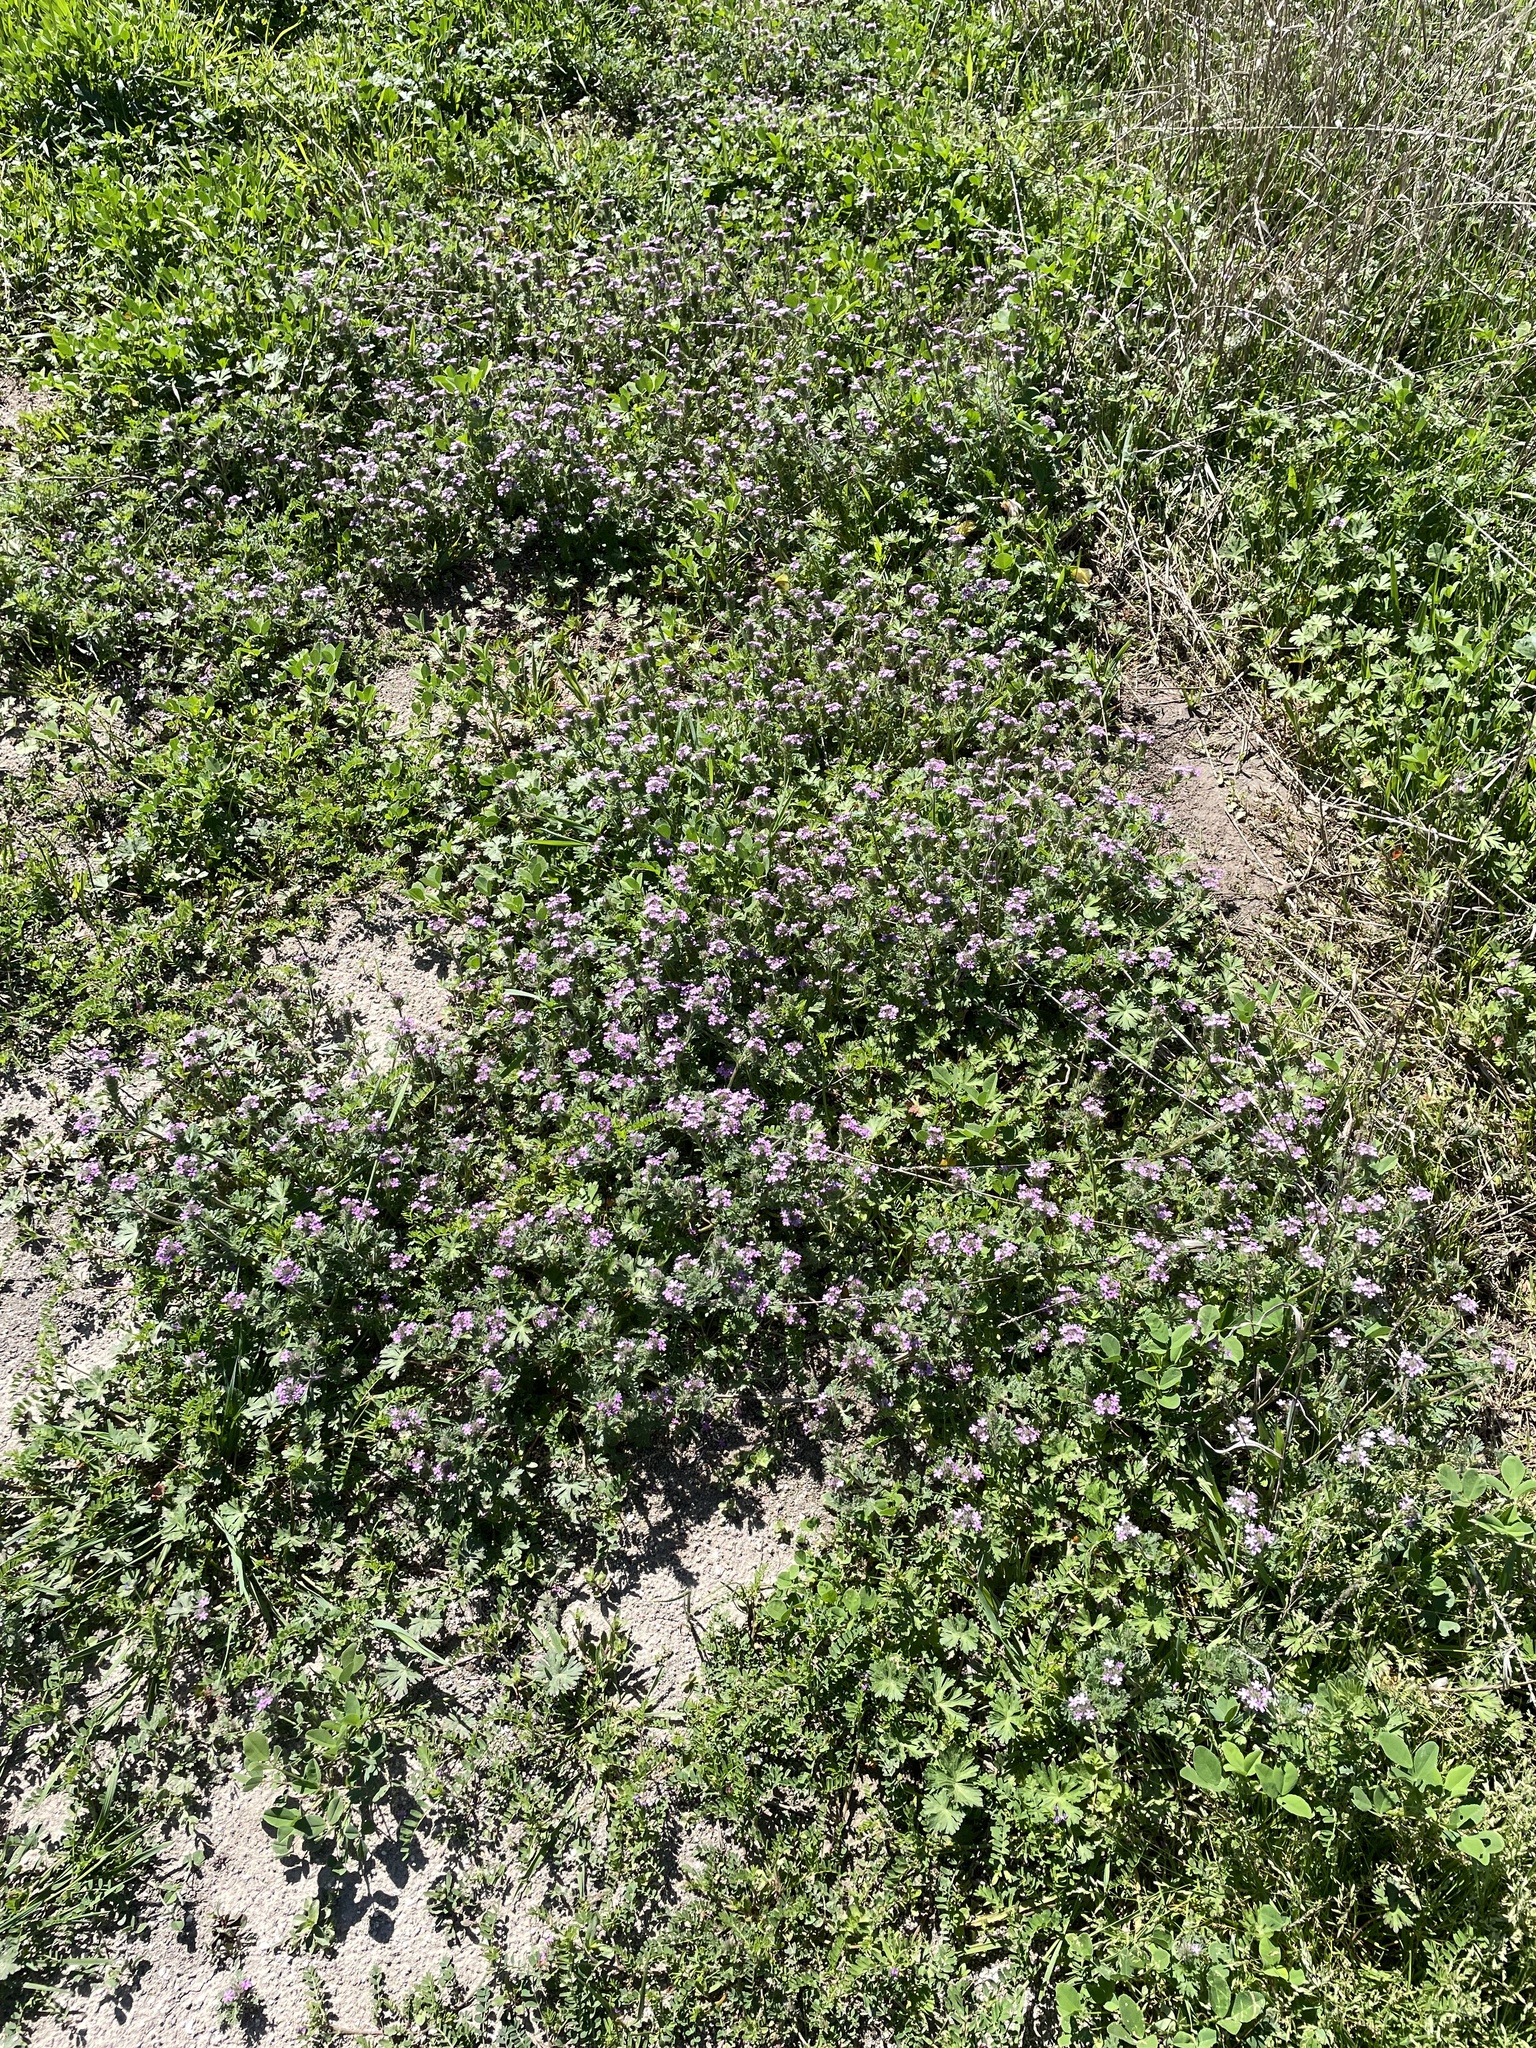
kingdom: Plantae
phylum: Tracheophyta
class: Magnoliopsida
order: Lamiales
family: Verbenaceae
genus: Verbena
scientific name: Verbena pumila
